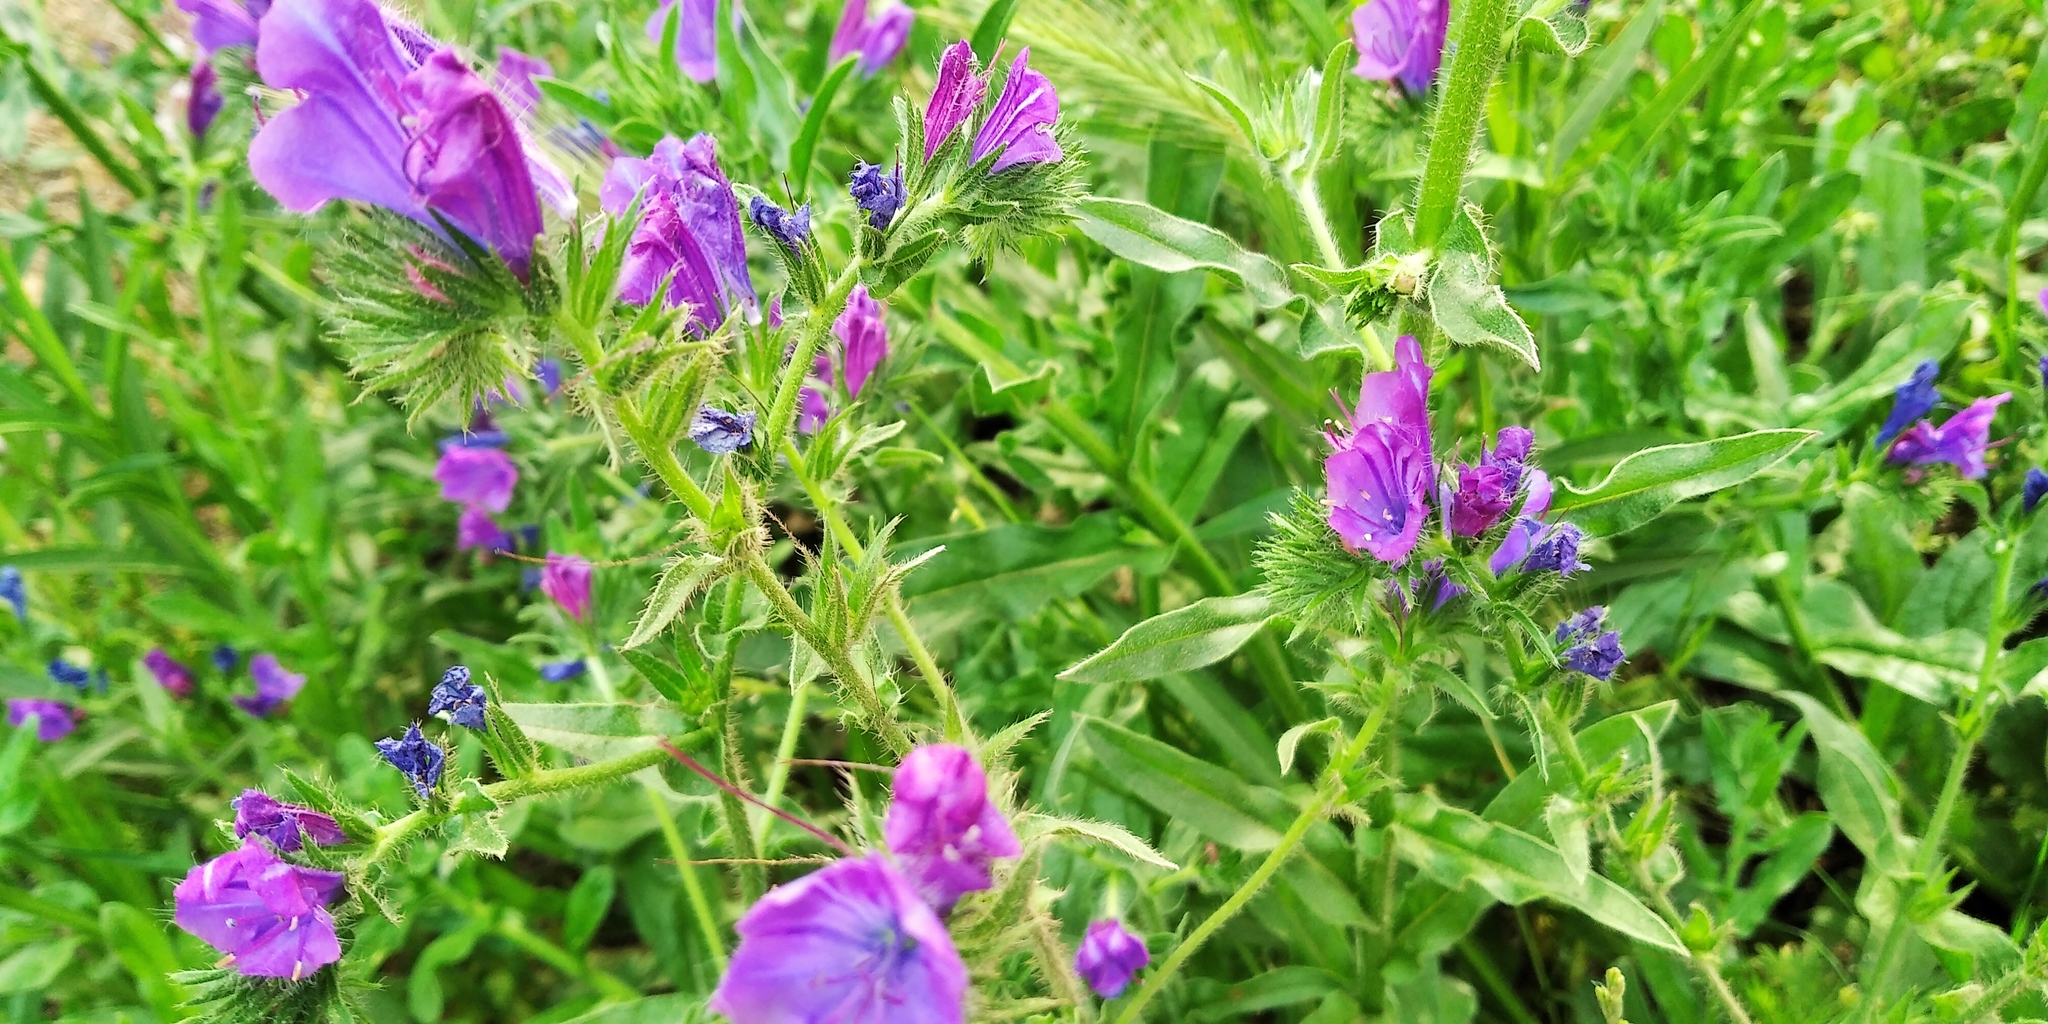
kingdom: Plantae
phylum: Tracheophyta
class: Magnoliopsida
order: Boraginales
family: Boraginaceae
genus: Echium
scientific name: Echium plantagineum
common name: Purple viper's-bugloss
